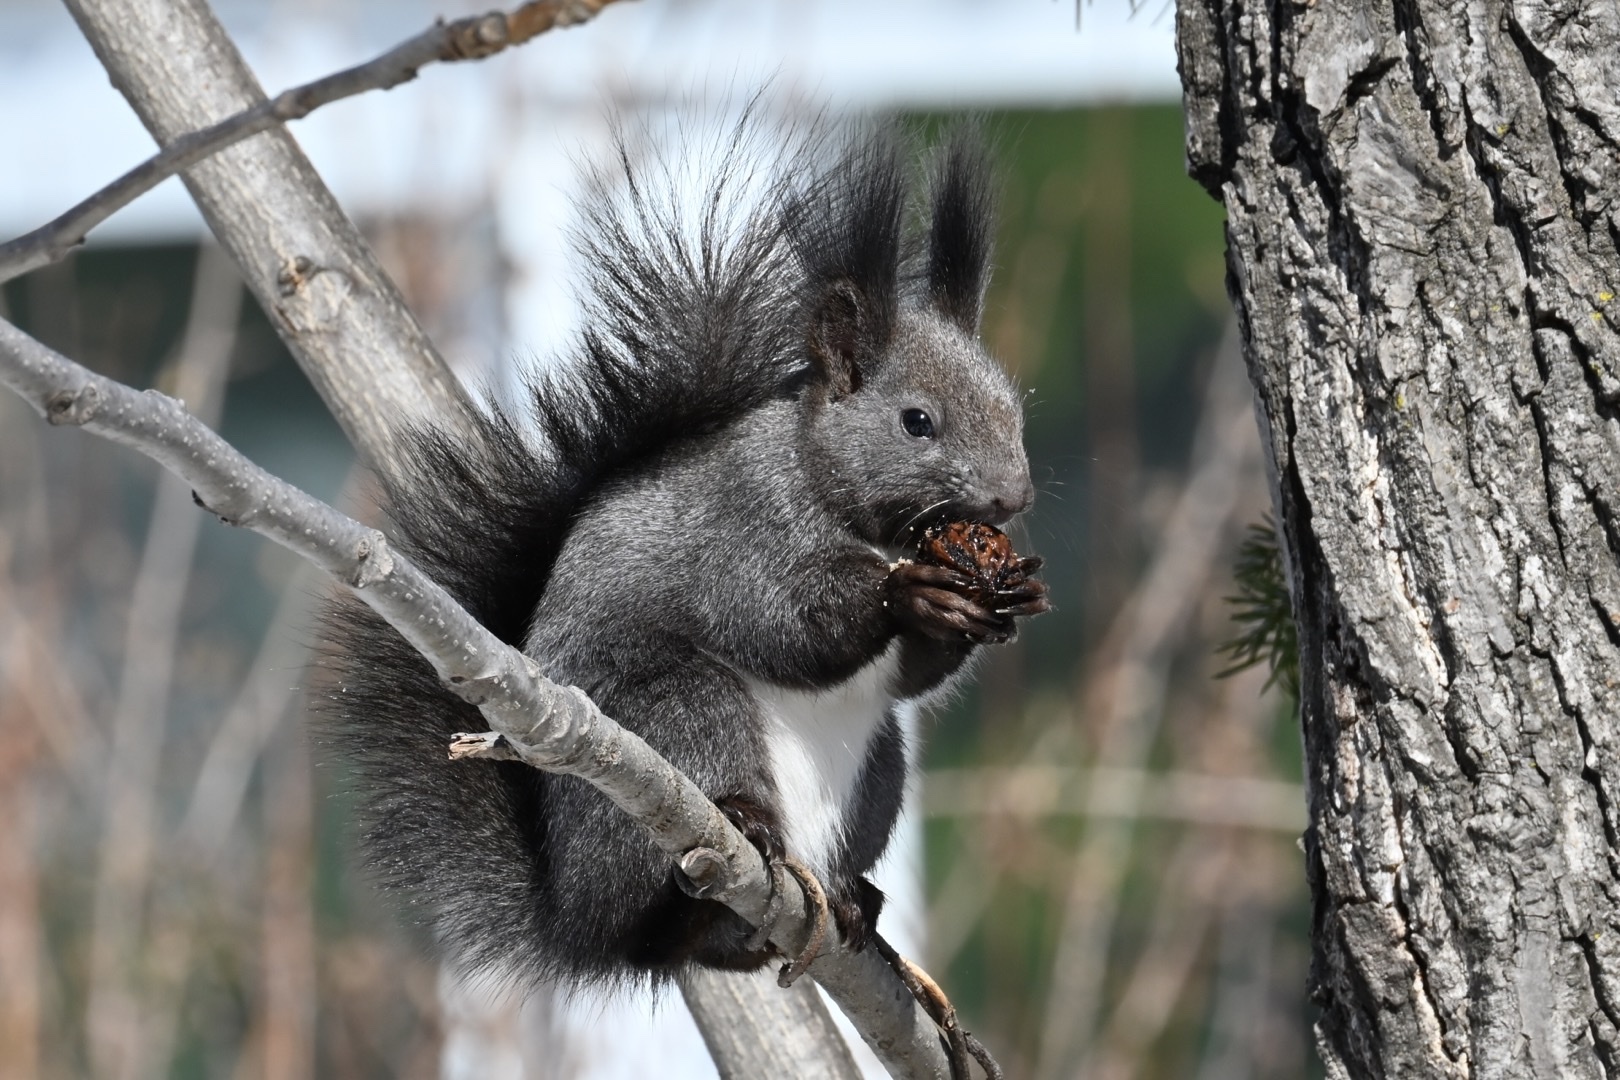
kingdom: Animalia
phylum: Chordata
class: Mammalia
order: Rodentia
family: Sciuridae
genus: Sciurus
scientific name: Sciurus vulgaris
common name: Eurasian red squirrel
